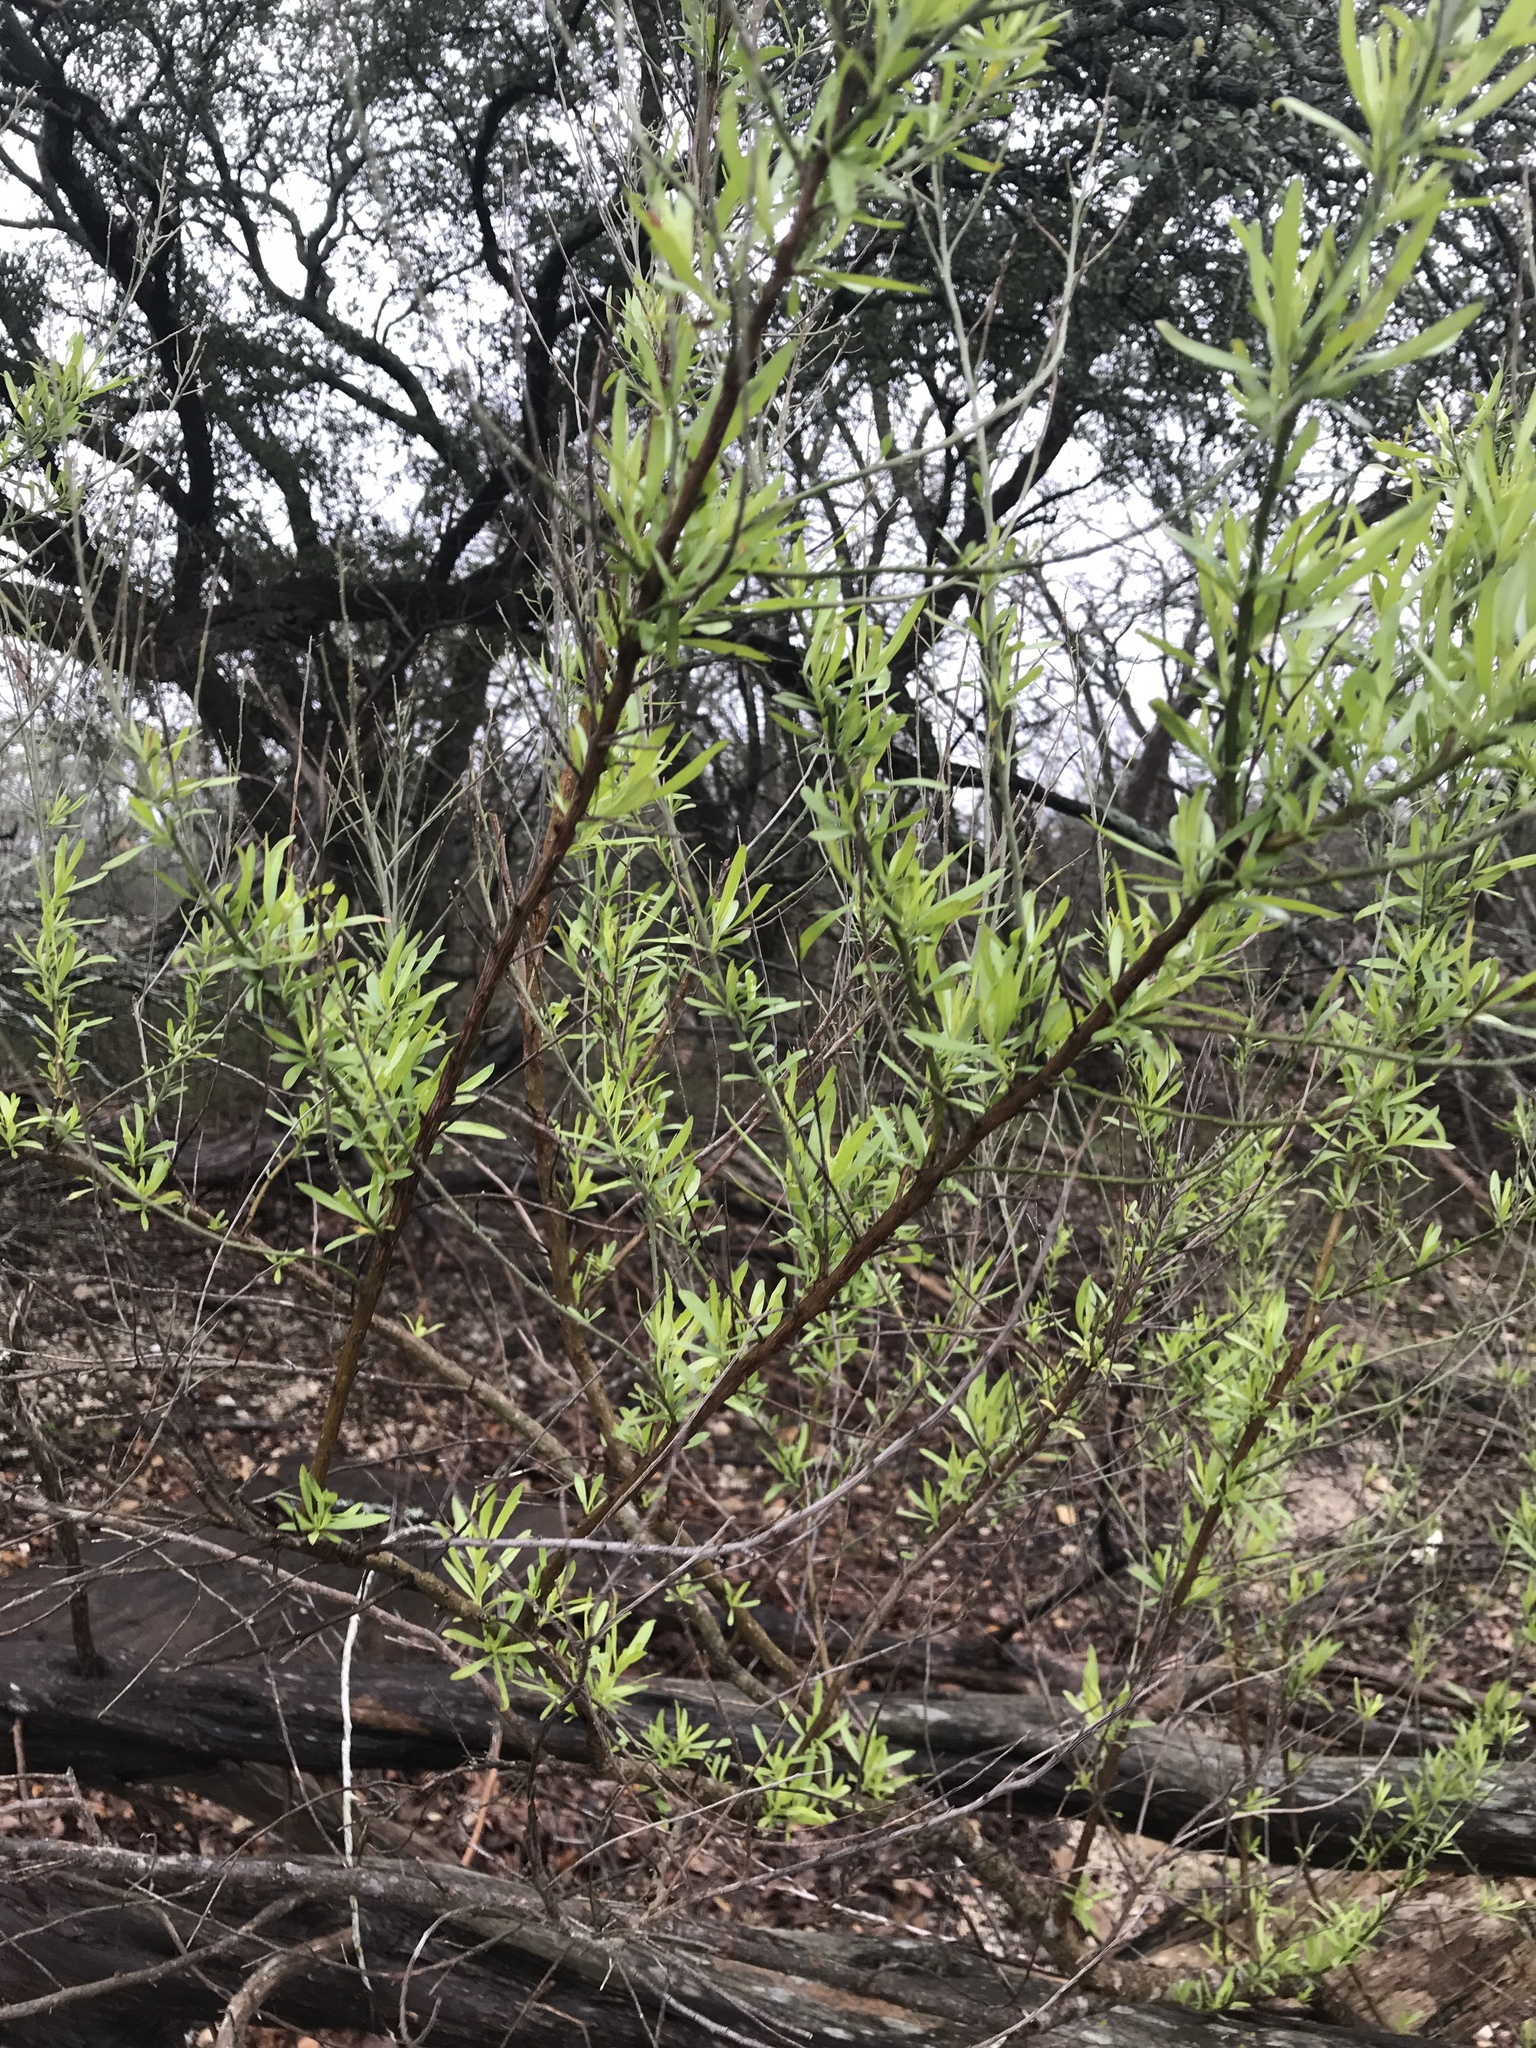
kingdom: Plantae
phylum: Tracheophyta
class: Magnoliopsida
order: Asterales
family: Asteraceae
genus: Baccharis
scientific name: Baccharis neglecta
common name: Roosevelt-weed
